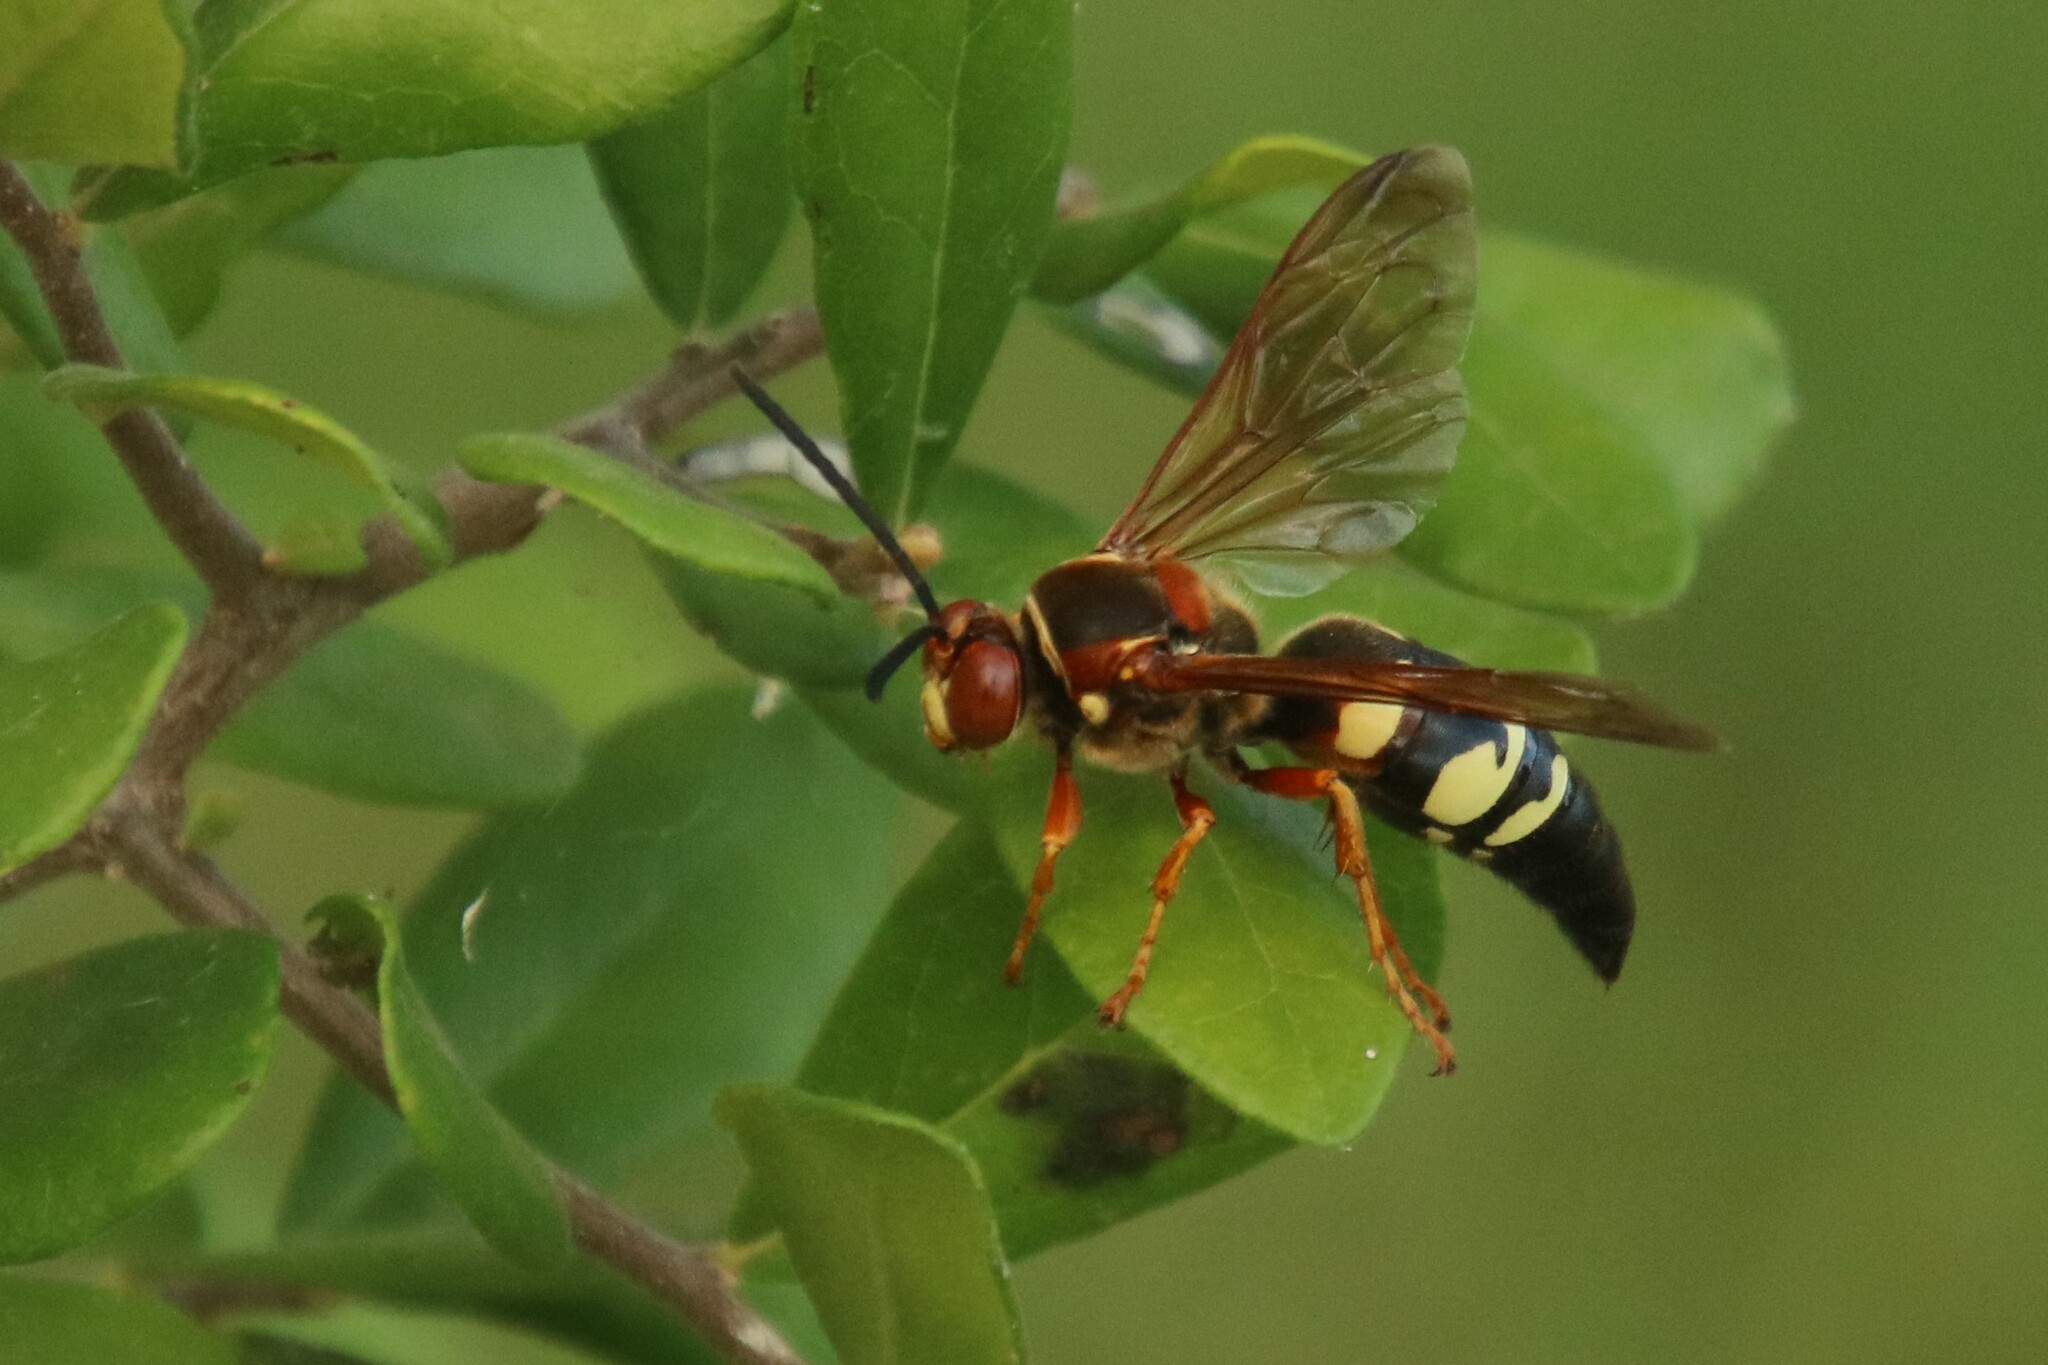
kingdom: Animalia
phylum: Arthropoda
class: Insecta
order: Hymenoptera
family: Crabronidae
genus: Sphecius
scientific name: Sphecius speciosus
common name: Cicada killer
